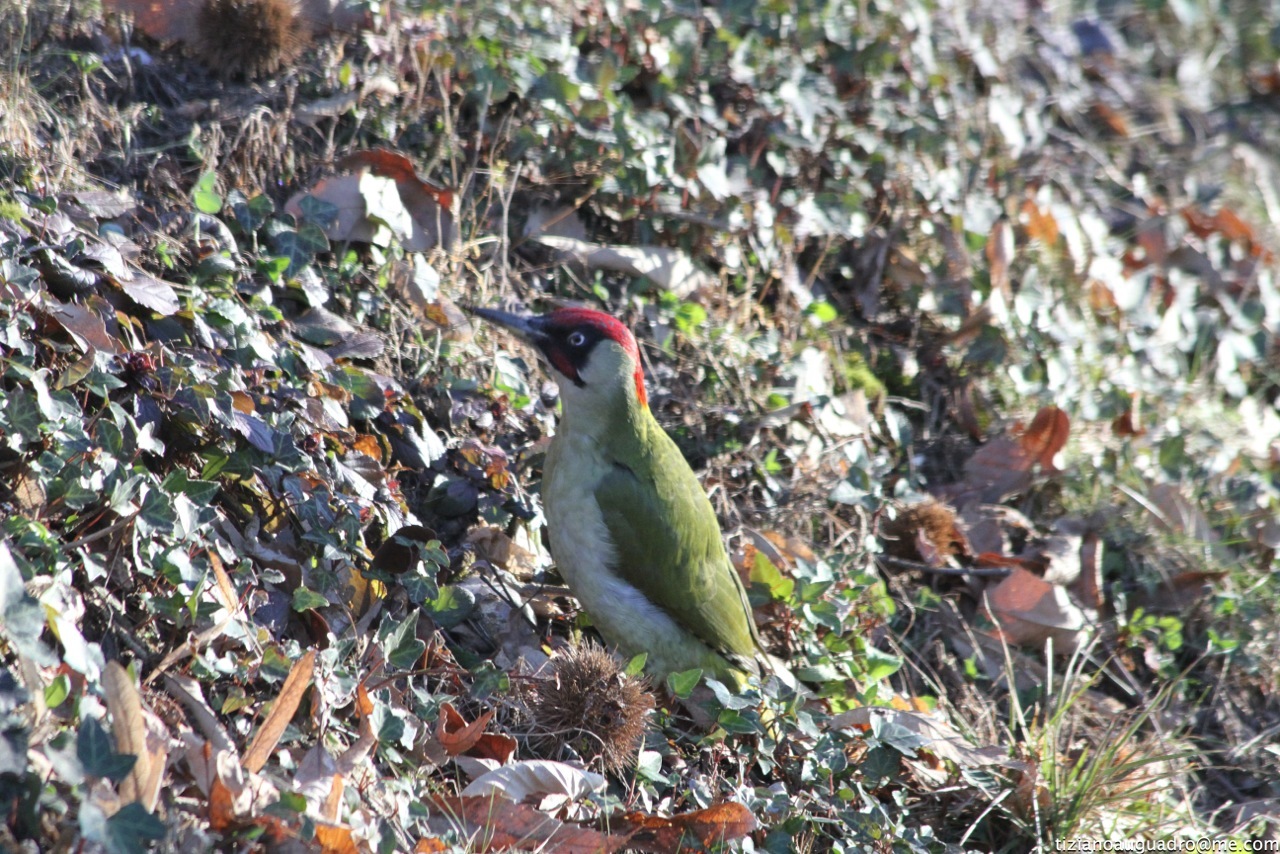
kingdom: Animalia
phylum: Chordata
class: Aves
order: Piciformes
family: Picidae
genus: Picus
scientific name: Picus viridis
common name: European green woodpecker
